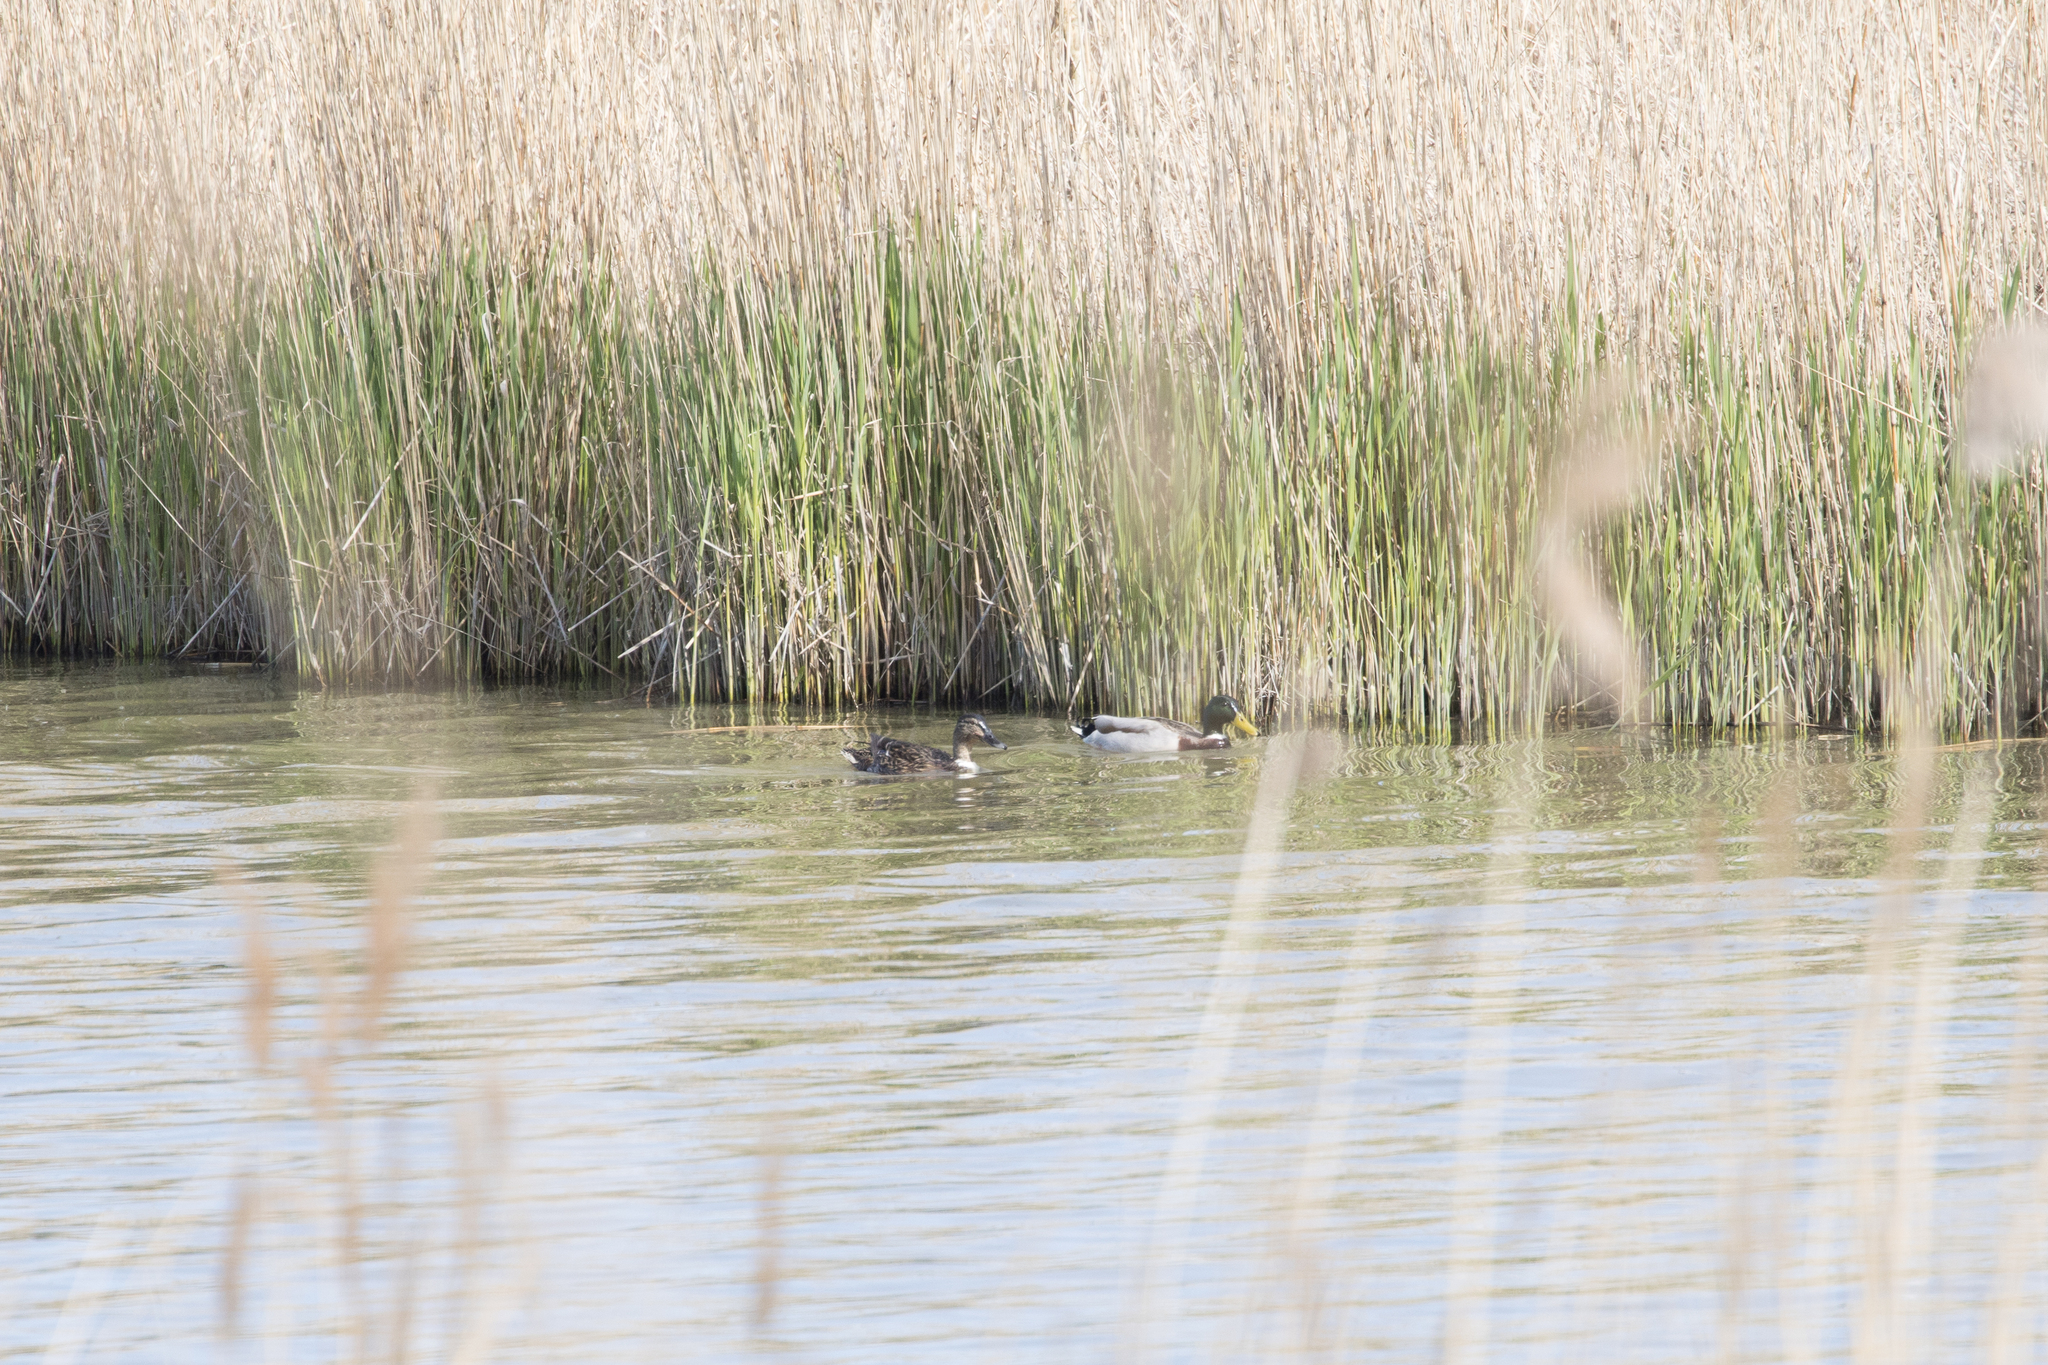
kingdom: Animalia
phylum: Chordata
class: Aves
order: Anseriformes
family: Anatidae
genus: Anas
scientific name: Anas platyrhynchos
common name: Mallard
